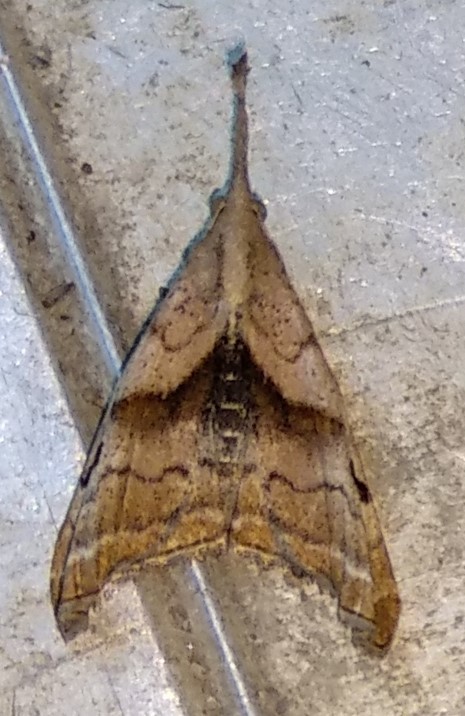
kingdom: Animalia
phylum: Arthropoda
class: Insecta
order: Lepidoptera
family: Erebidae
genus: Palthis
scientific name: Palthis angulalis
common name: Dark-spotted palthis moth
